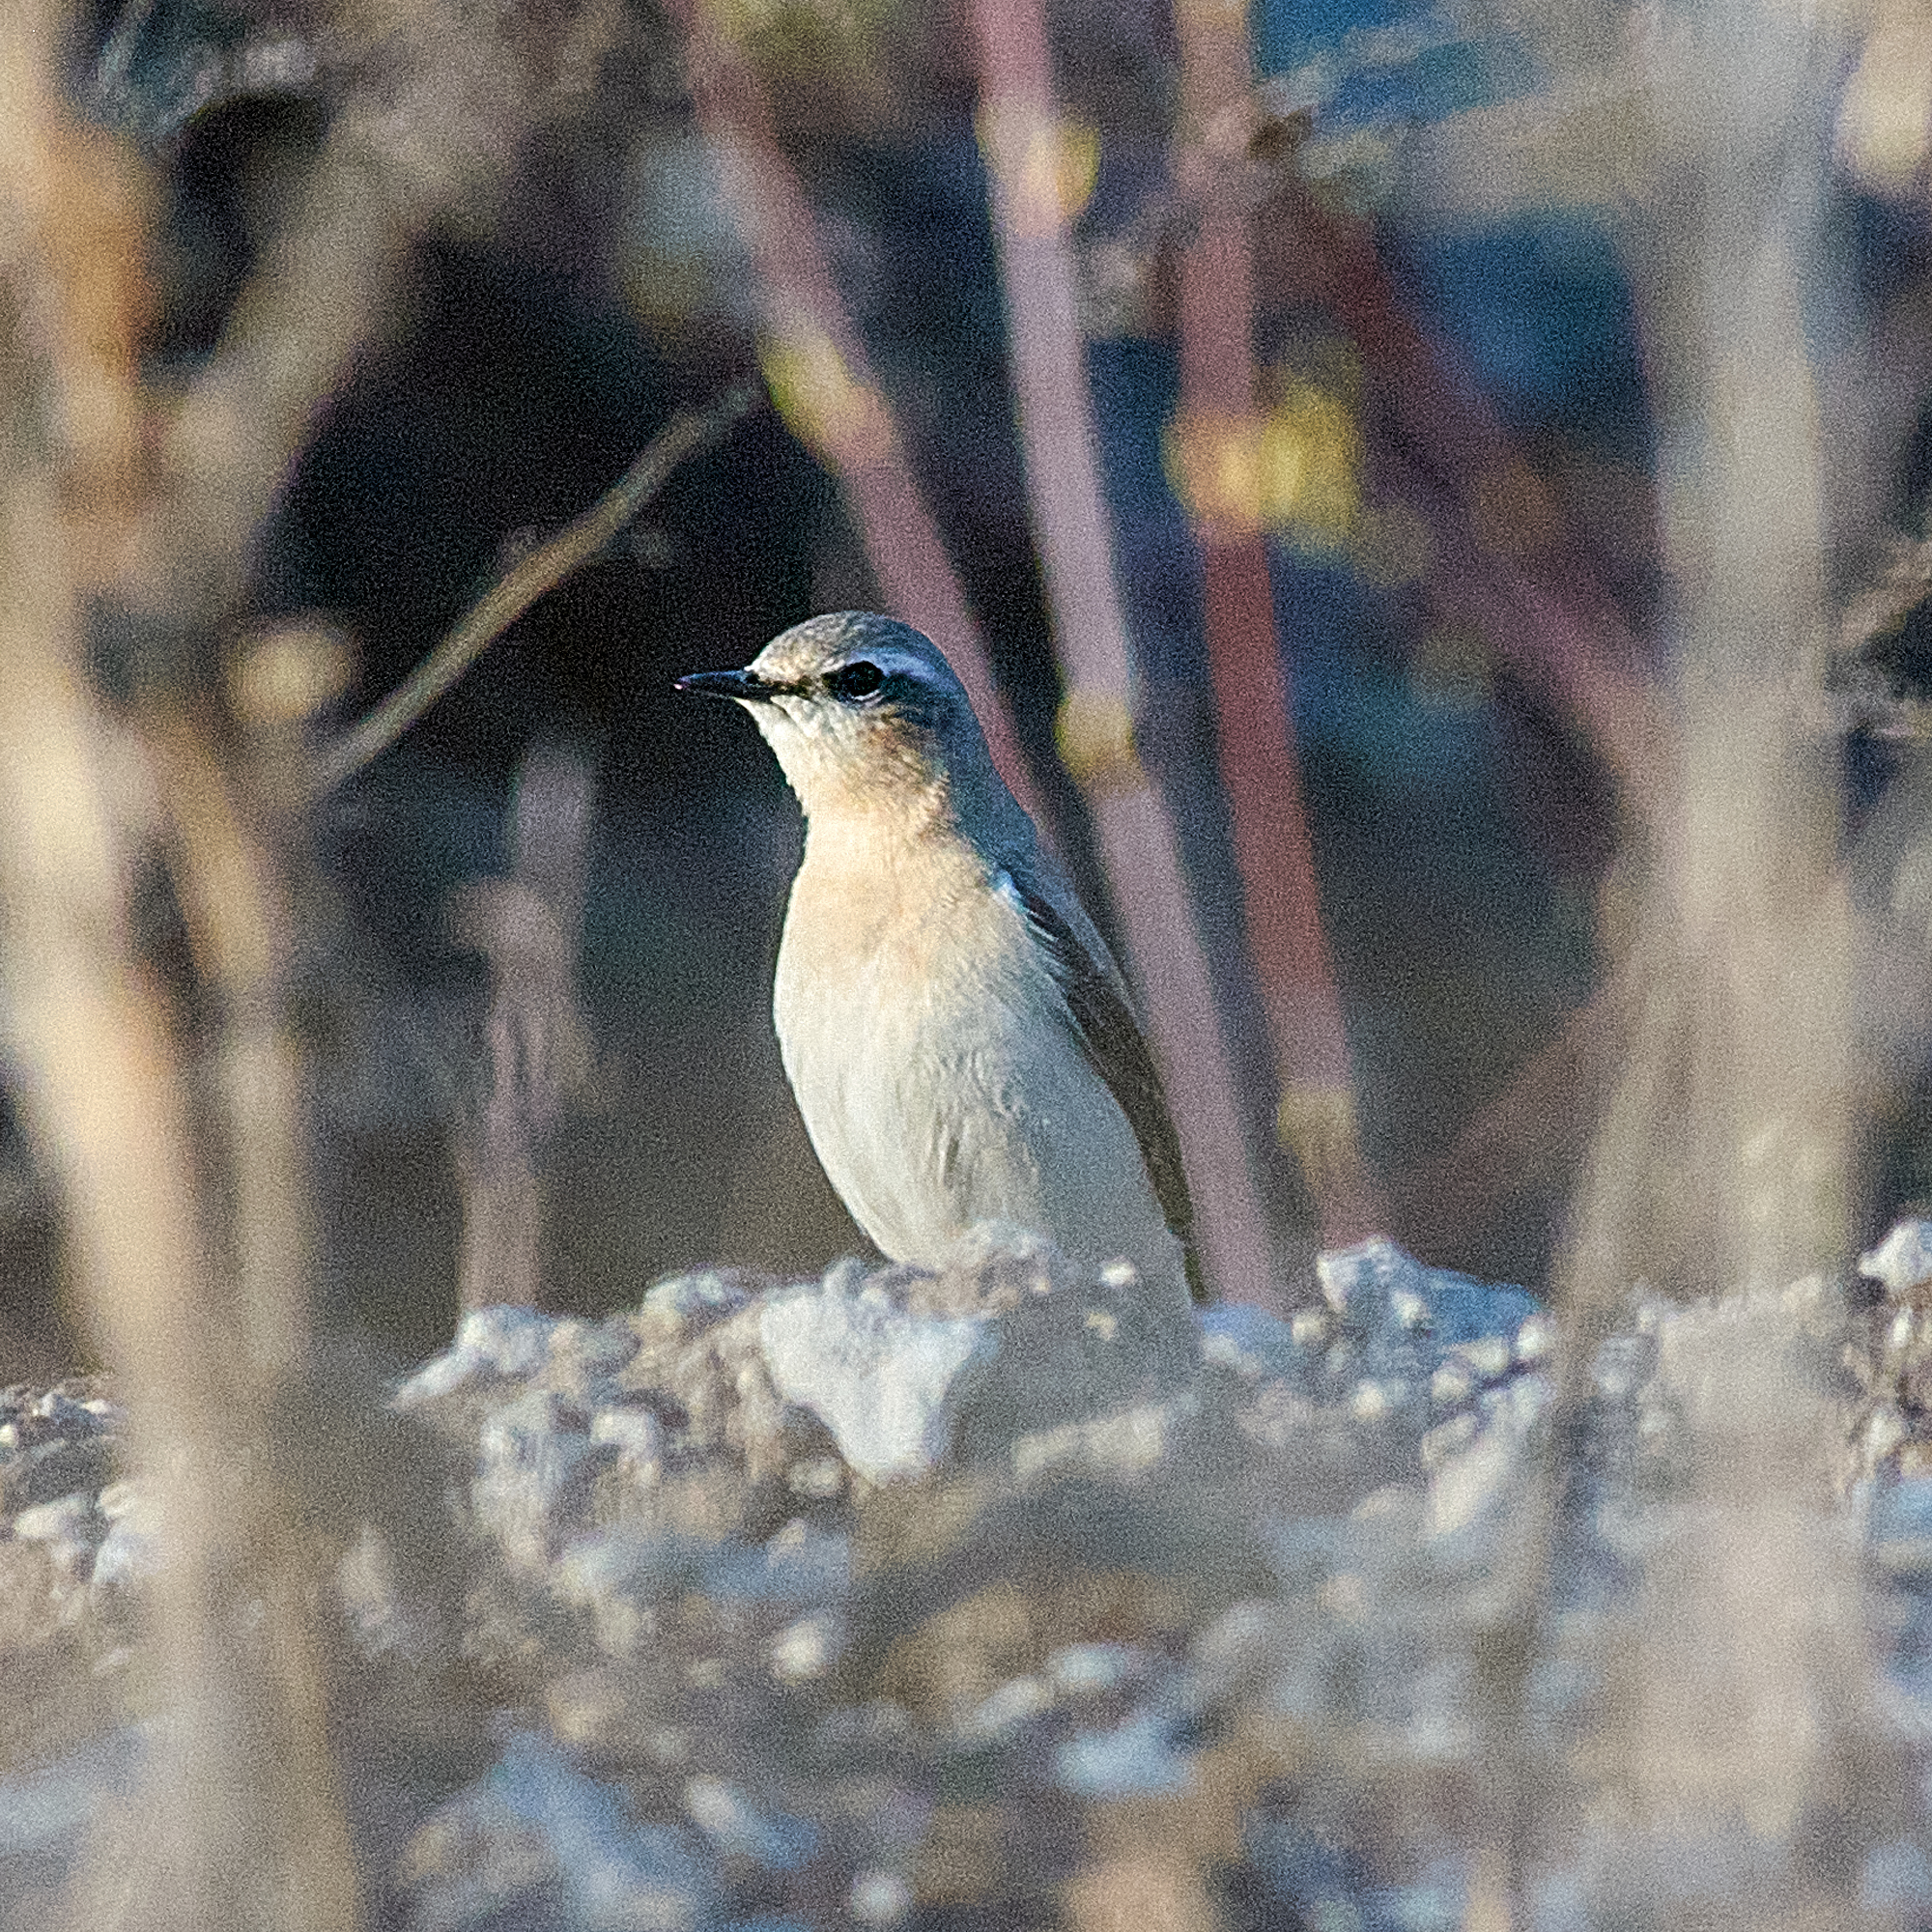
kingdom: Animalia
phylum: Chordata
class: Aves
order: Passeriformes
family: Muscicapidae
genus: Oenanthe
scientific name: Oenanthe oenanthe
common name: Northern wheatear
